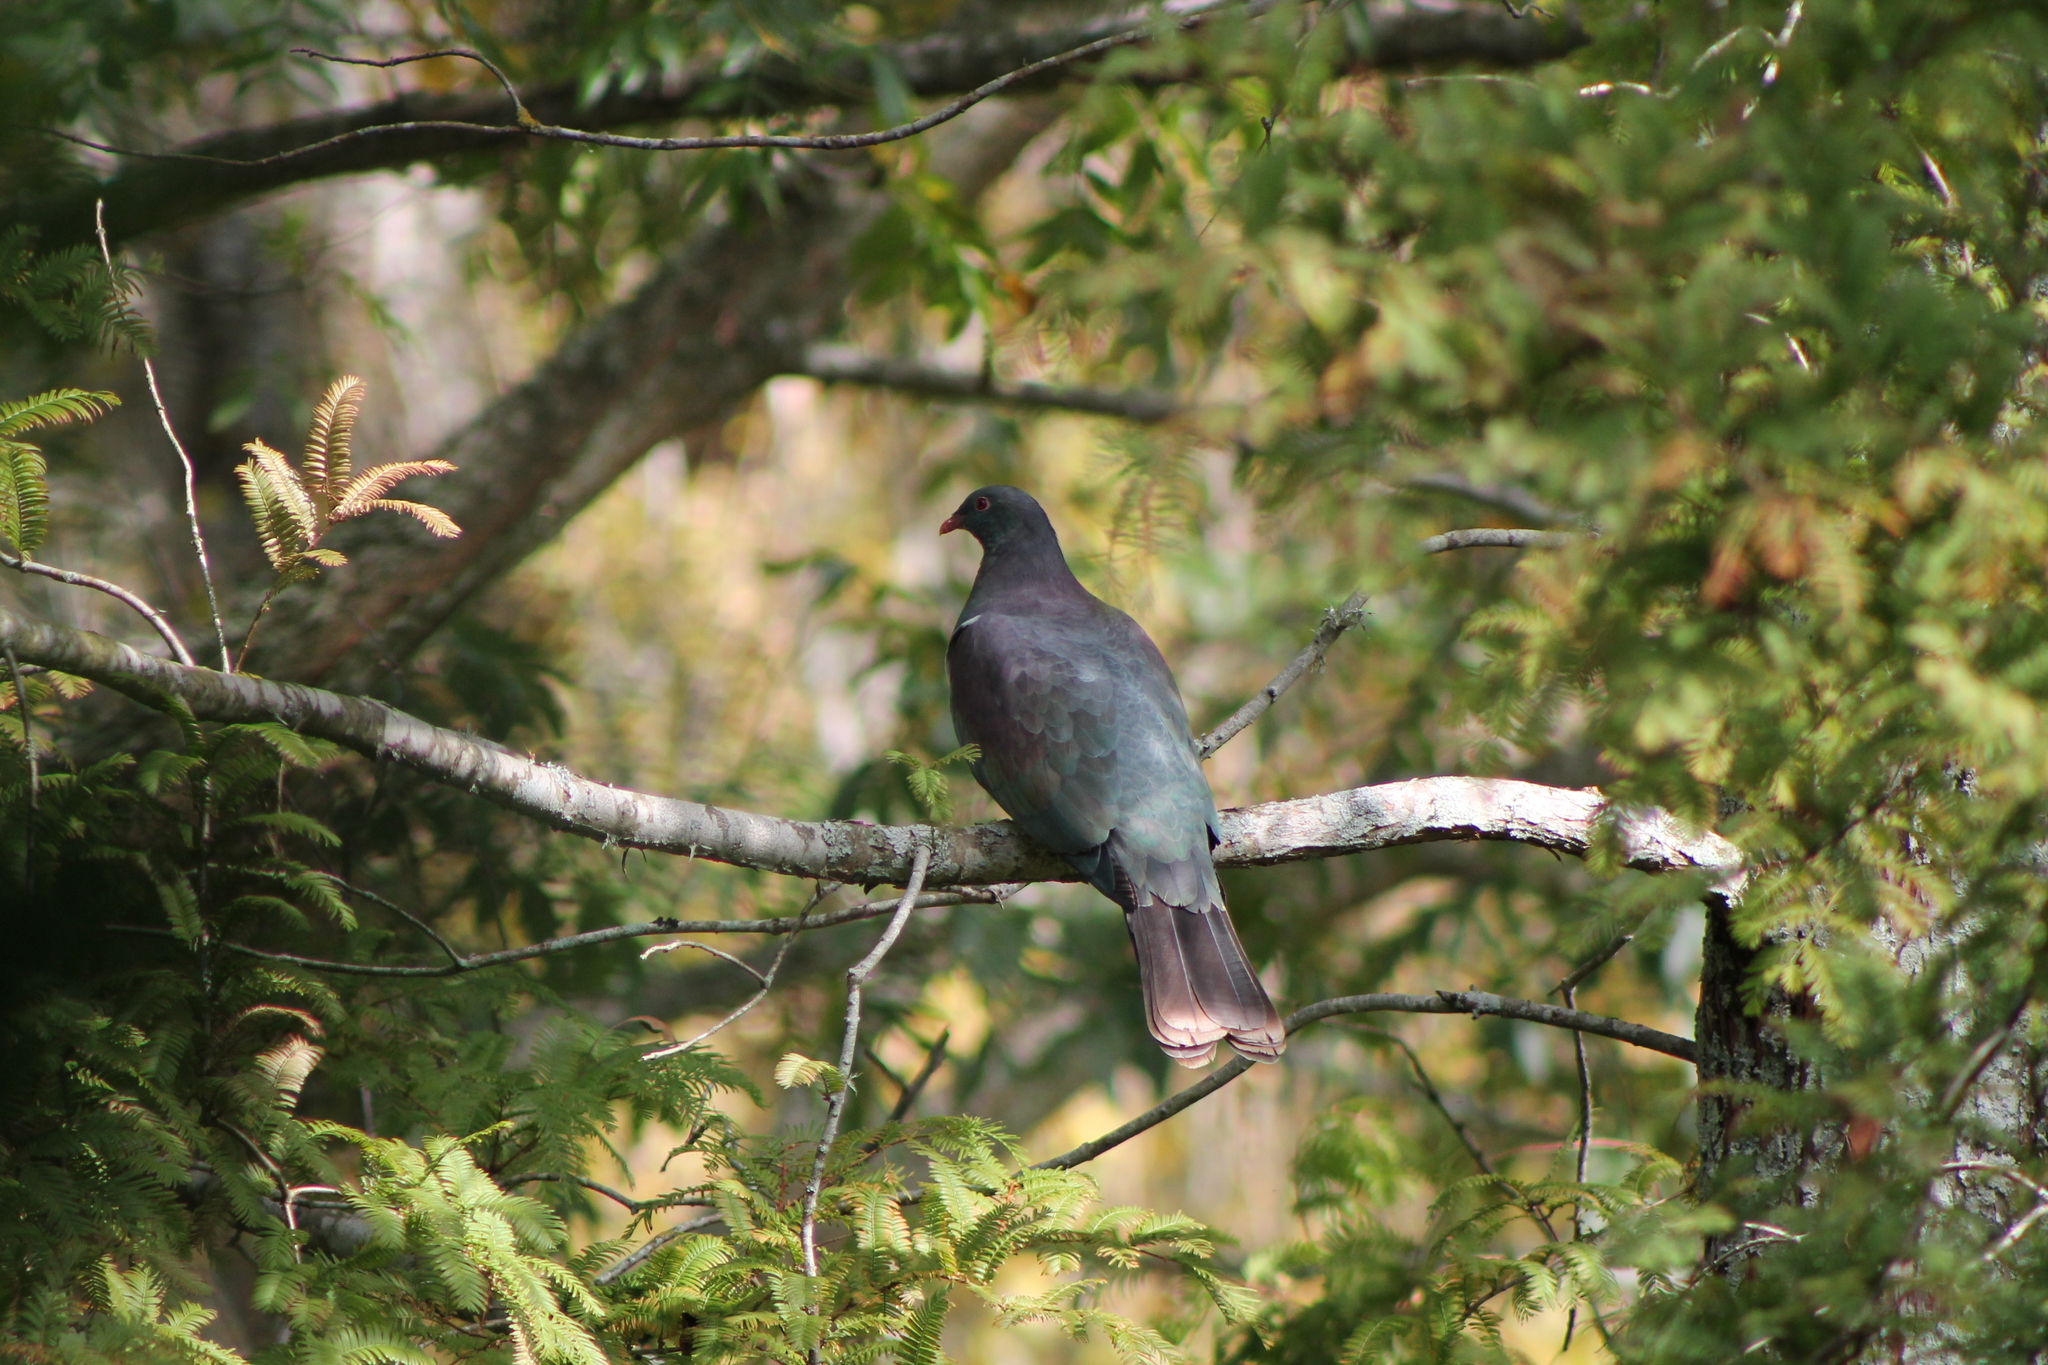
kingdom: Animalia
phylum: Chordata
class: Aves
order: Columbiformes
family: Columbidae
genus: Hemiphaga
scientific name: Hemiphaga novaeseelandiae
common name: New zealand pigeon
